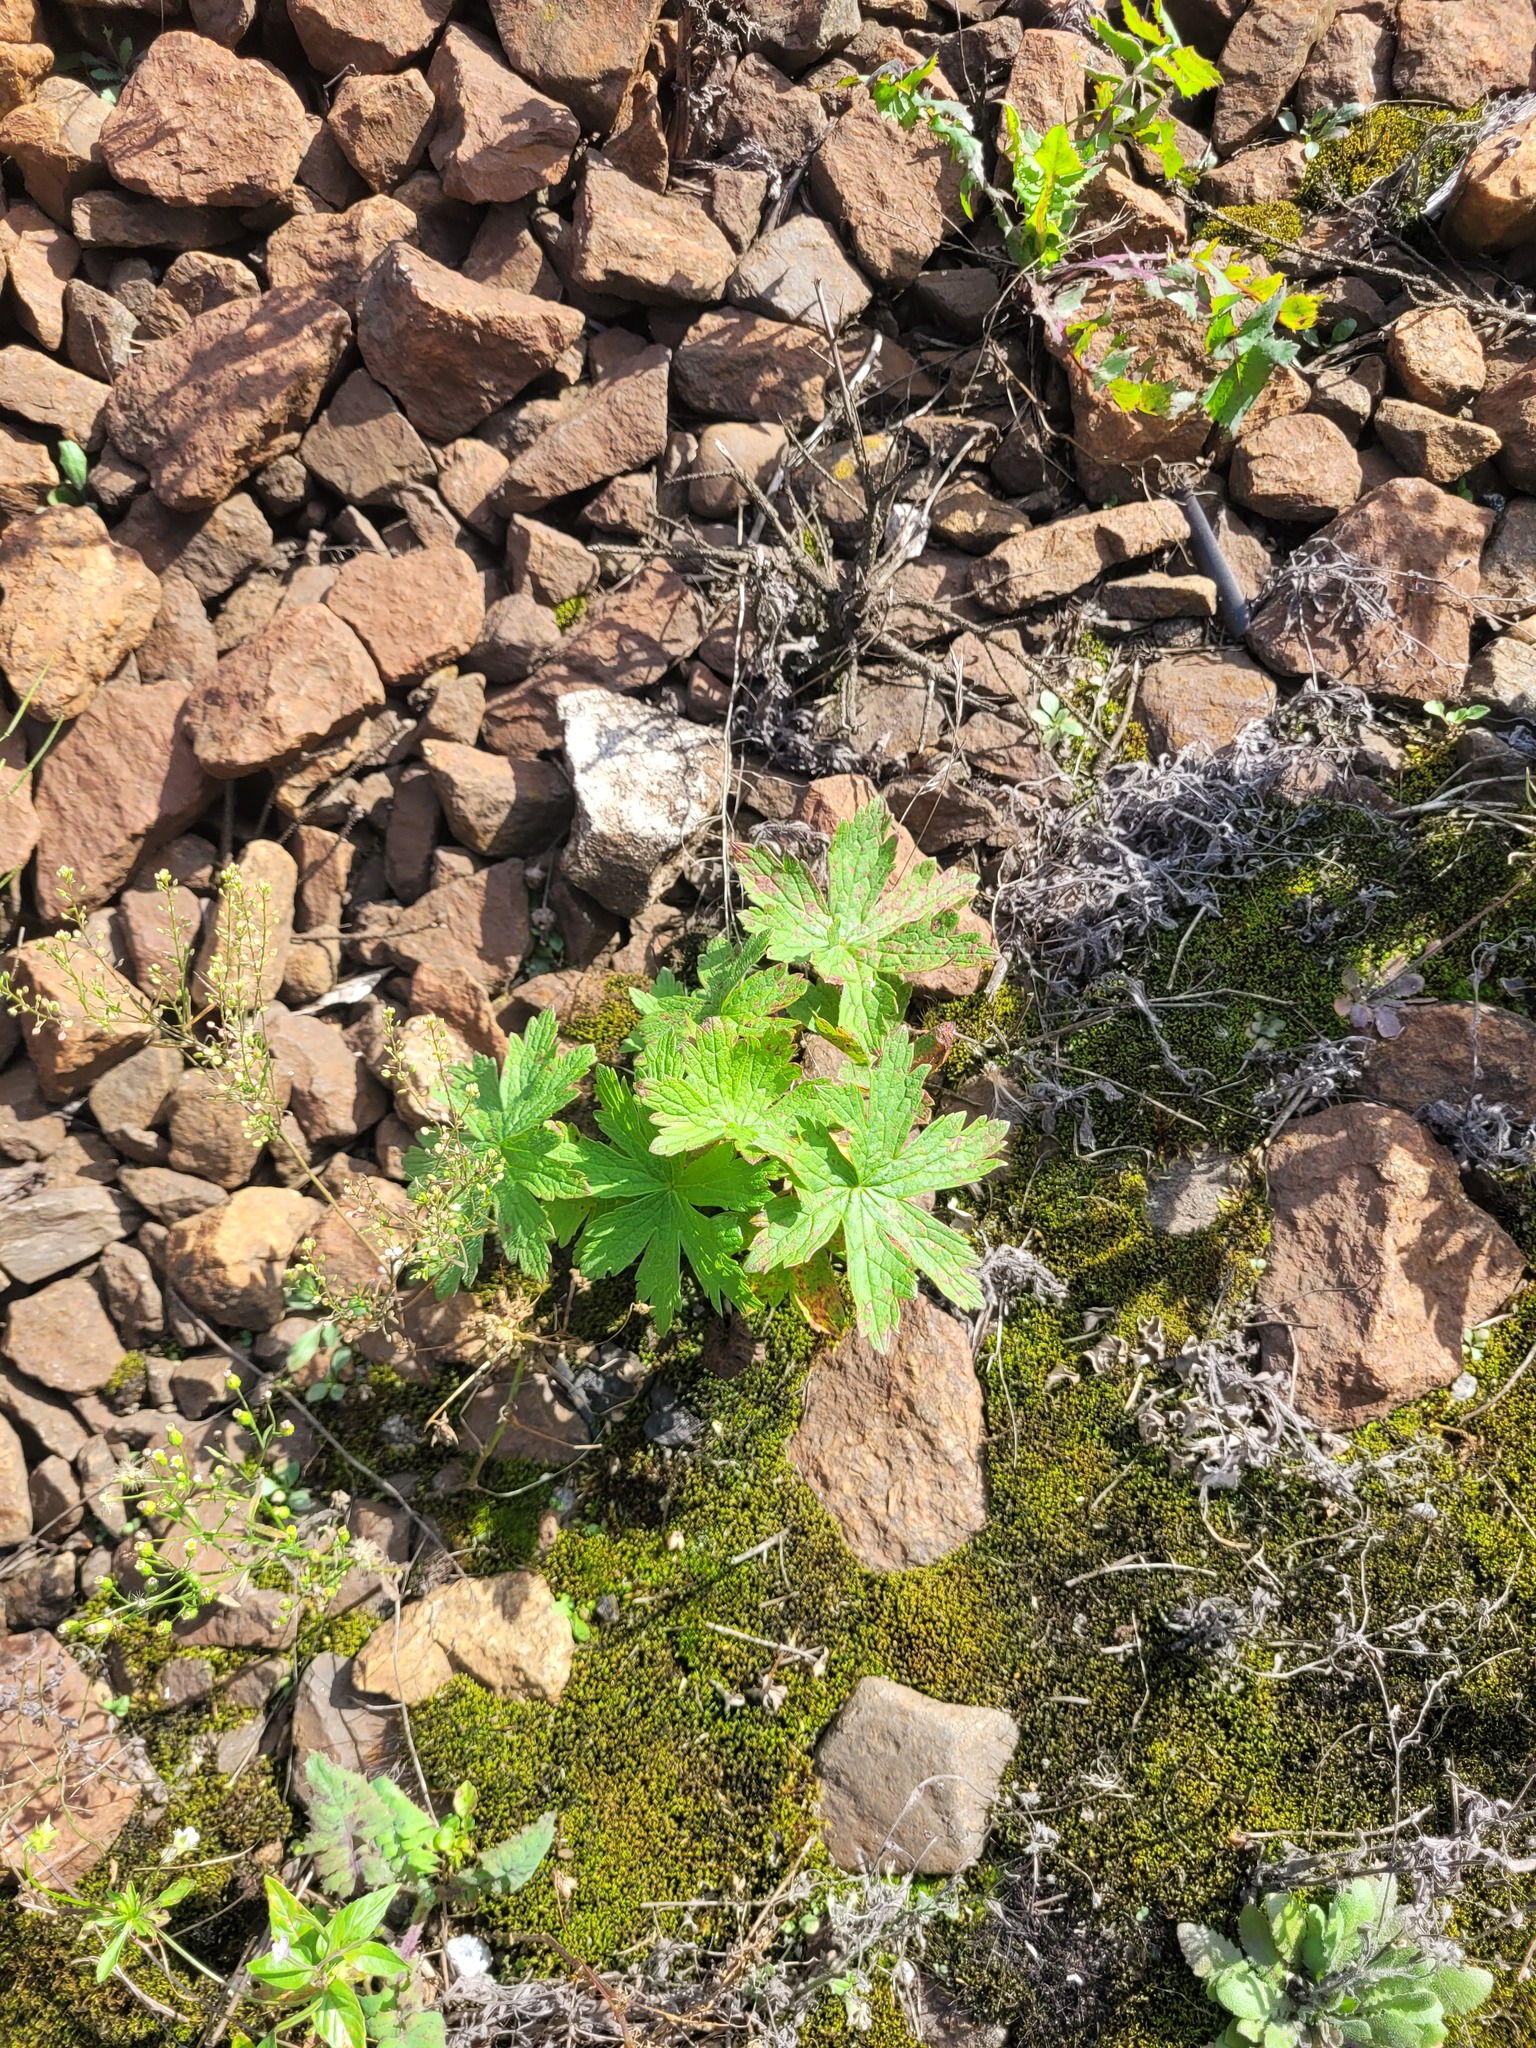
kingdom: Plantae
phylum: Tracheophyta
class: Magnoliopsida
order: Geraniales
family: Geraniaceae
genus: Geranium
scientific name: Geranium sylvaticum
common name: Wood crane's-bill
